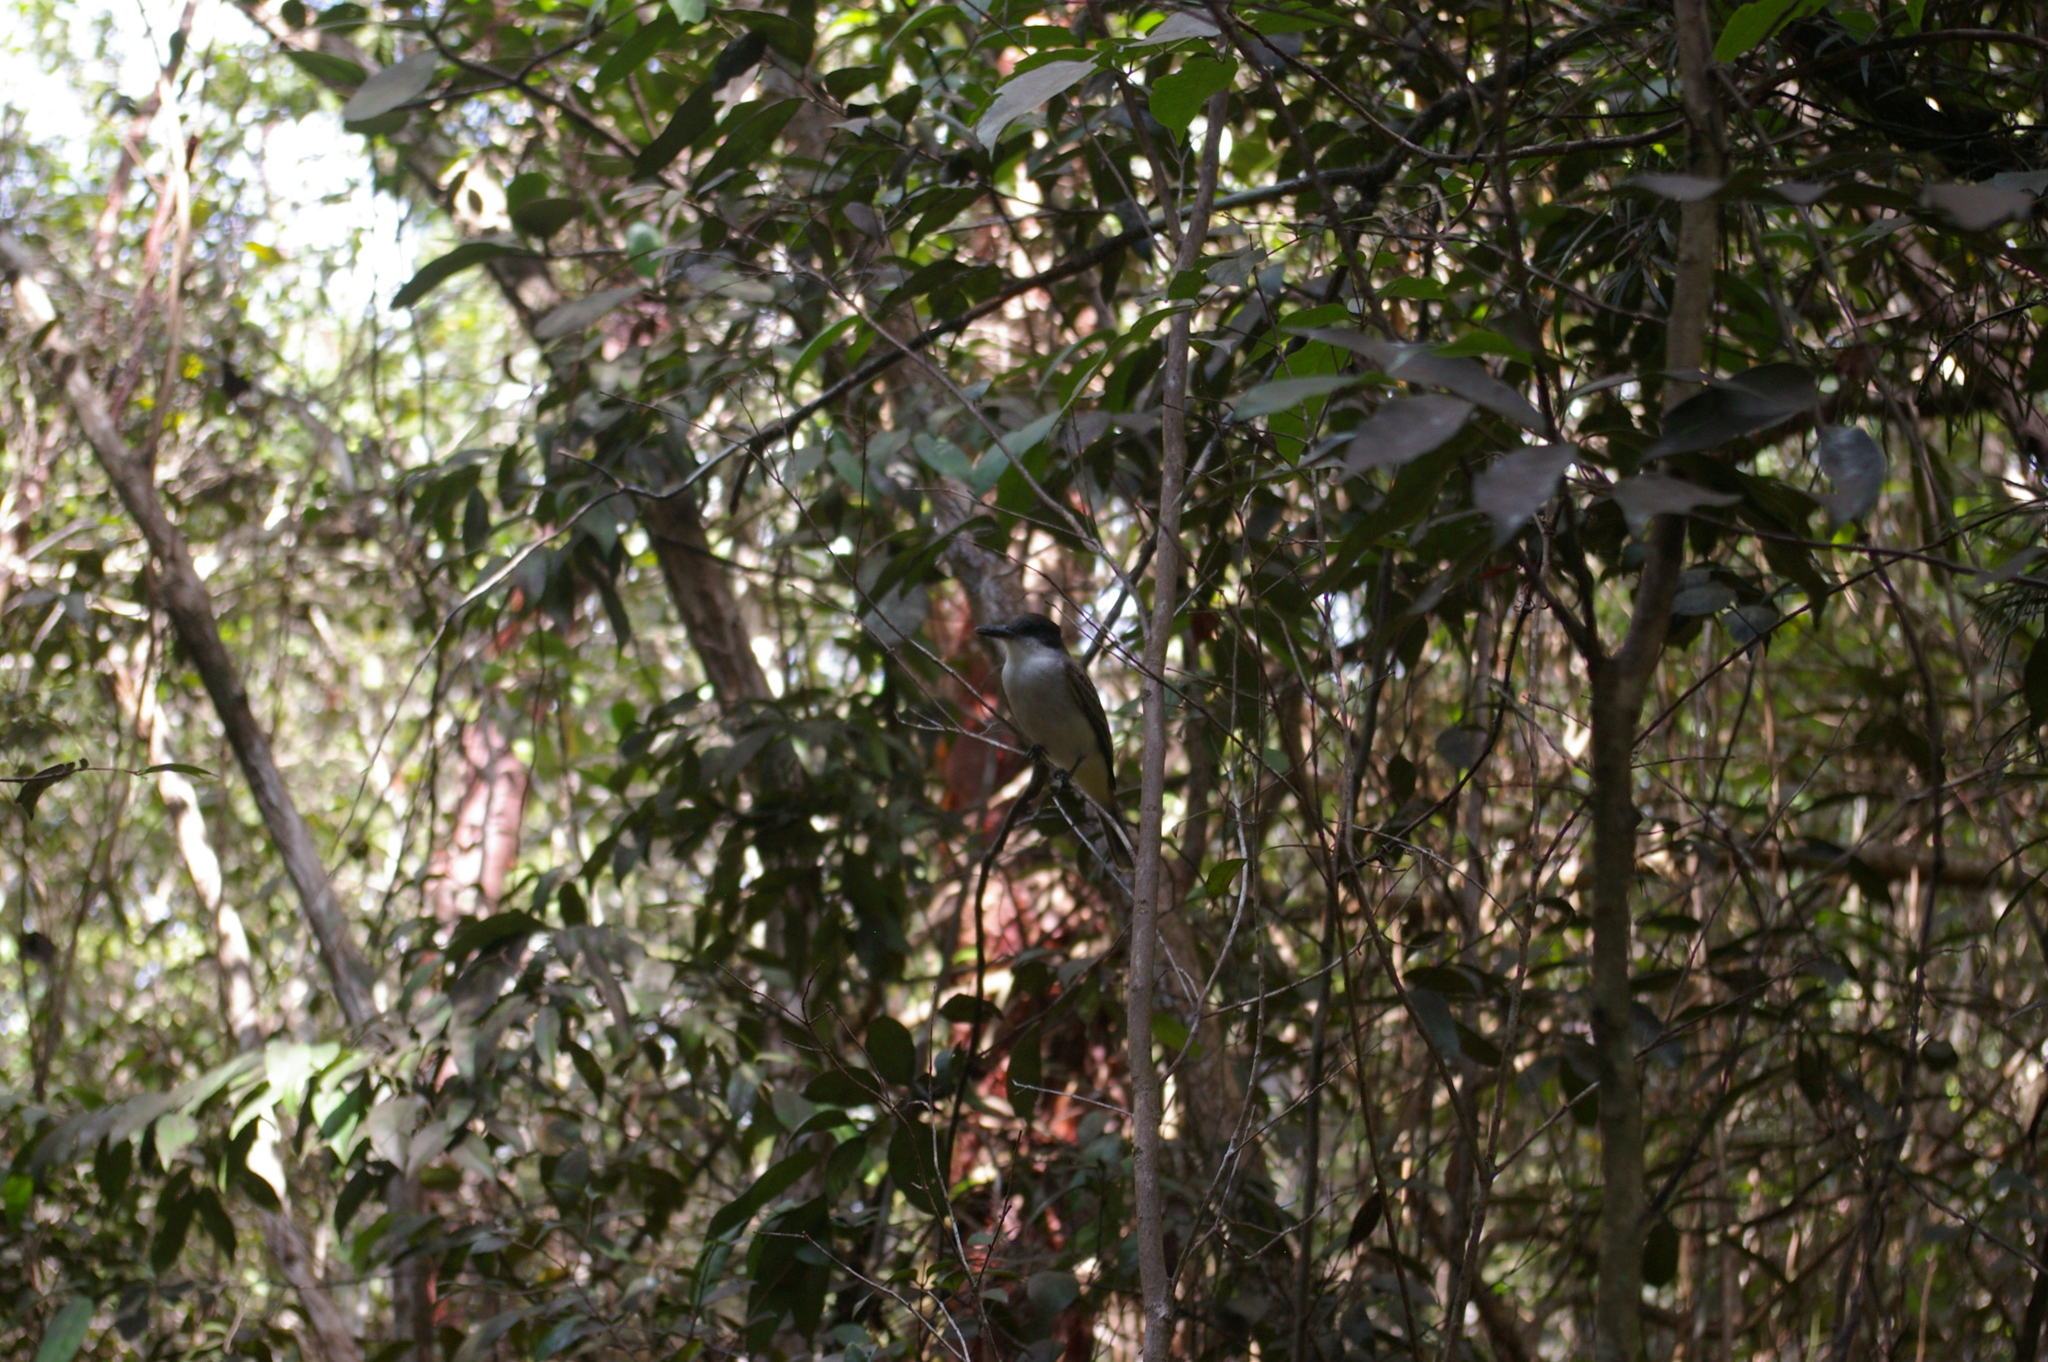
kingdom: Animalia
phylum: Chordata
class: Aves
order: Passeriformes
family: Tyrannidae
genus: Tyrannus
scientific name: Tyrannus caudifasciatus
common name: Loggerhead kingbird
